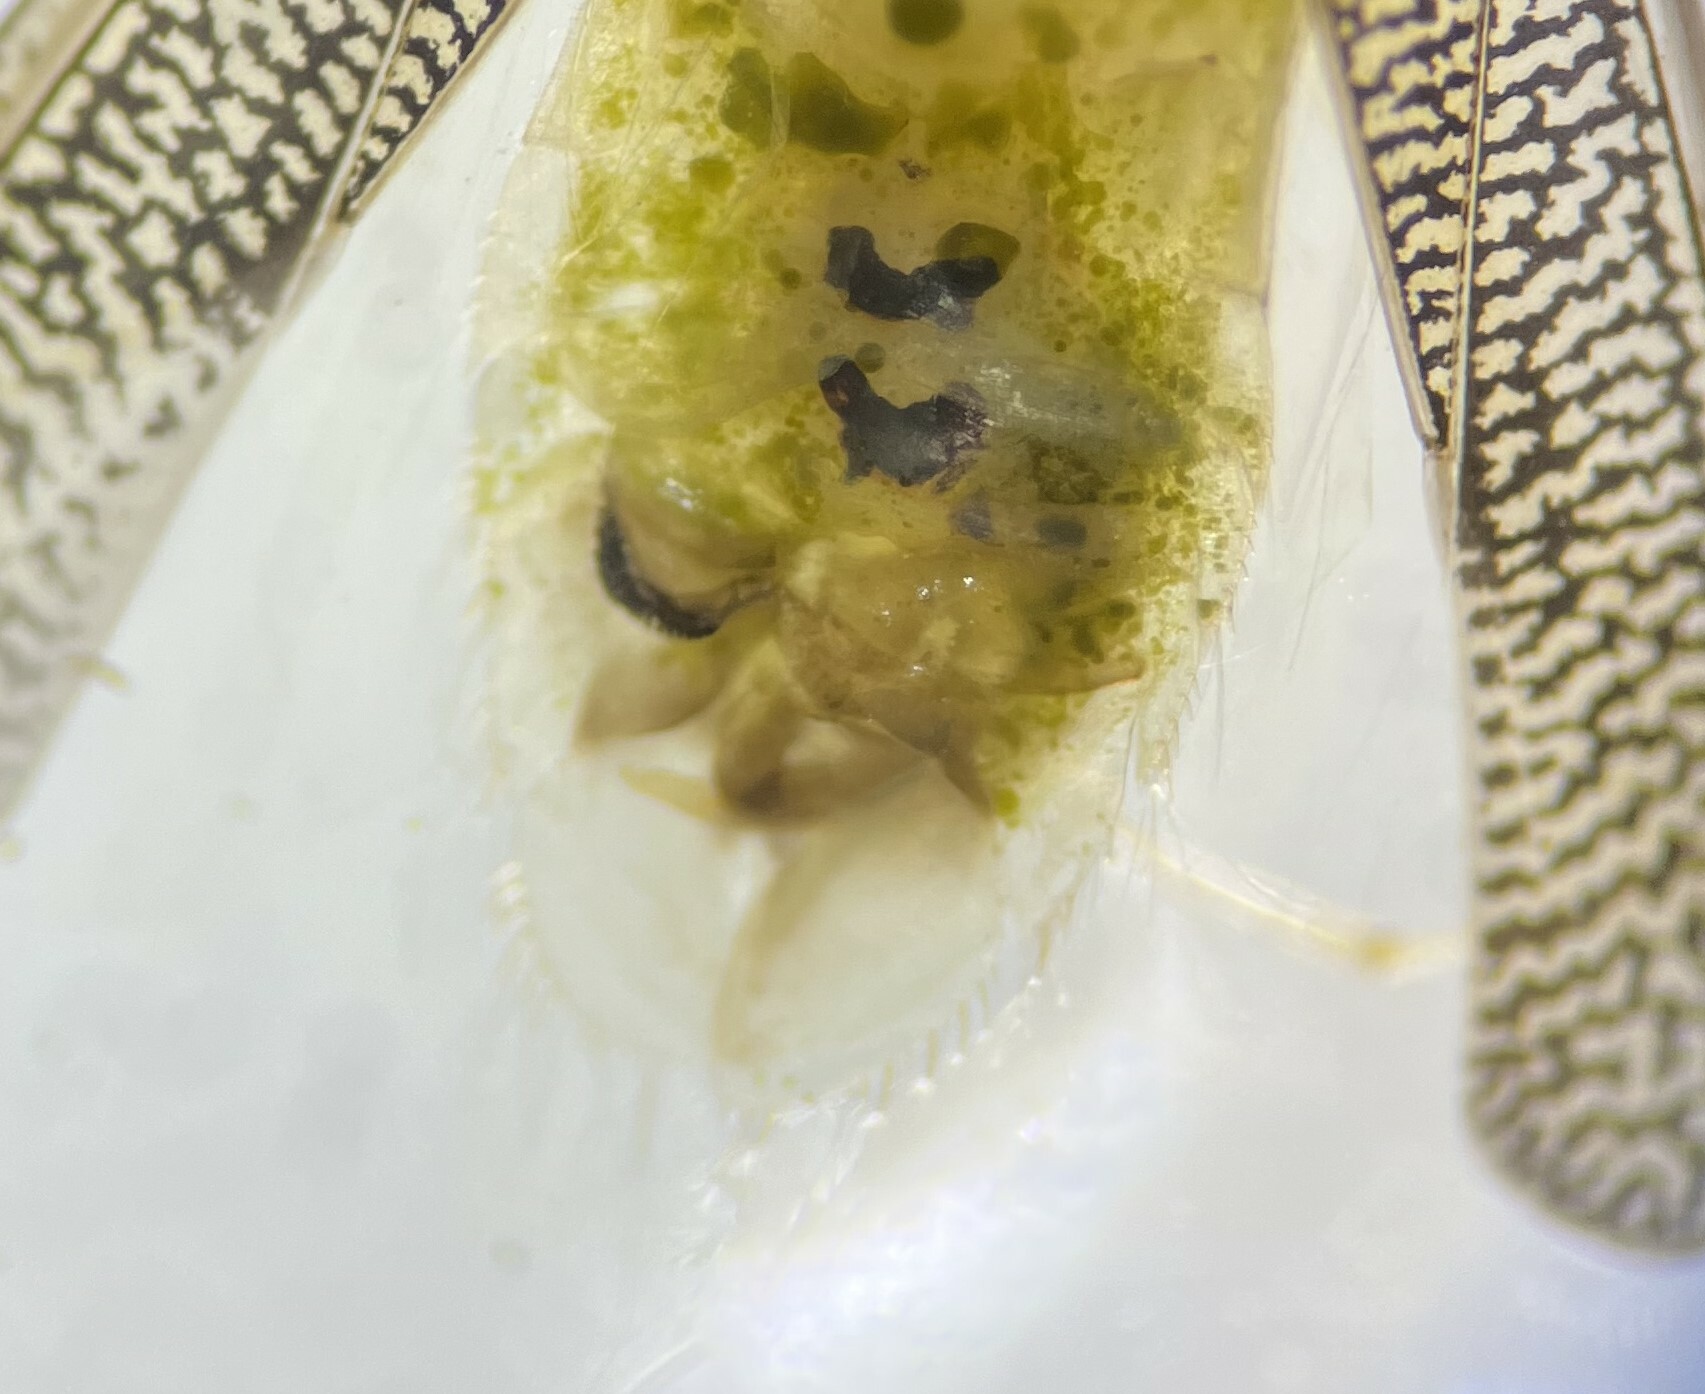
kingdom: Animalia
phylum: Arthropoda
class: Insecta
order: Hemiptera
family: Corixidae
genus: Trichocorixa
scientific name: Trichocorixa louisianae
